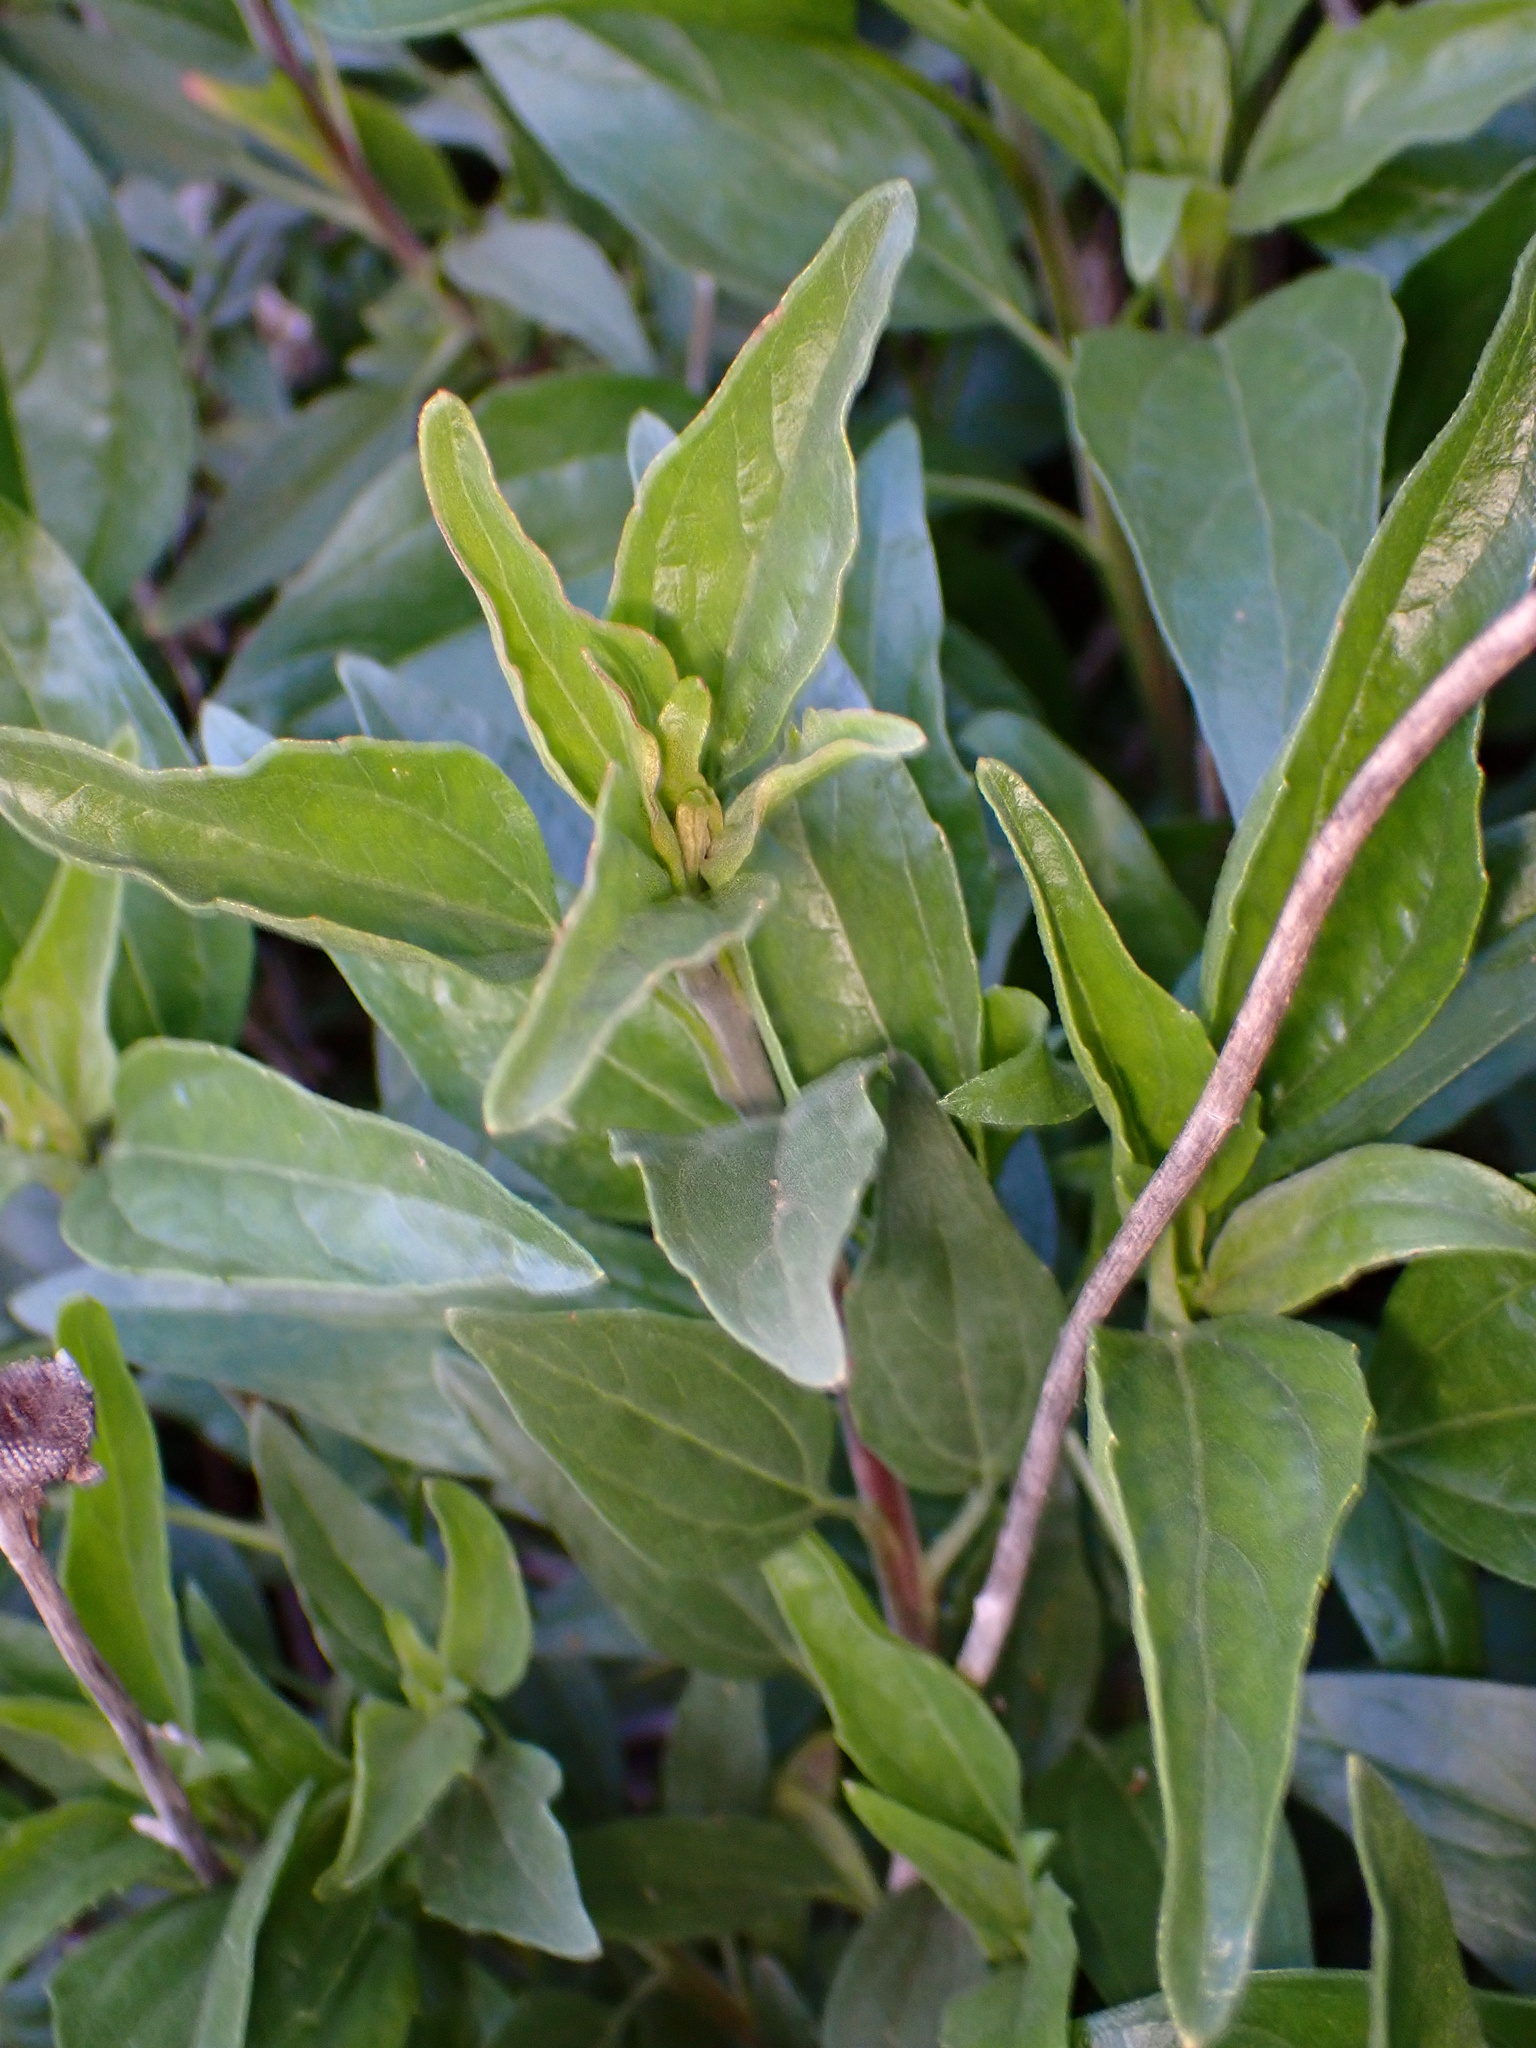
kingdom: Plantae
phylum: Tracheophyta
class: Magnoliopsida
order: Asterales
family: Asteraceae
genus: Encelia
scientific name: Encelia californica
